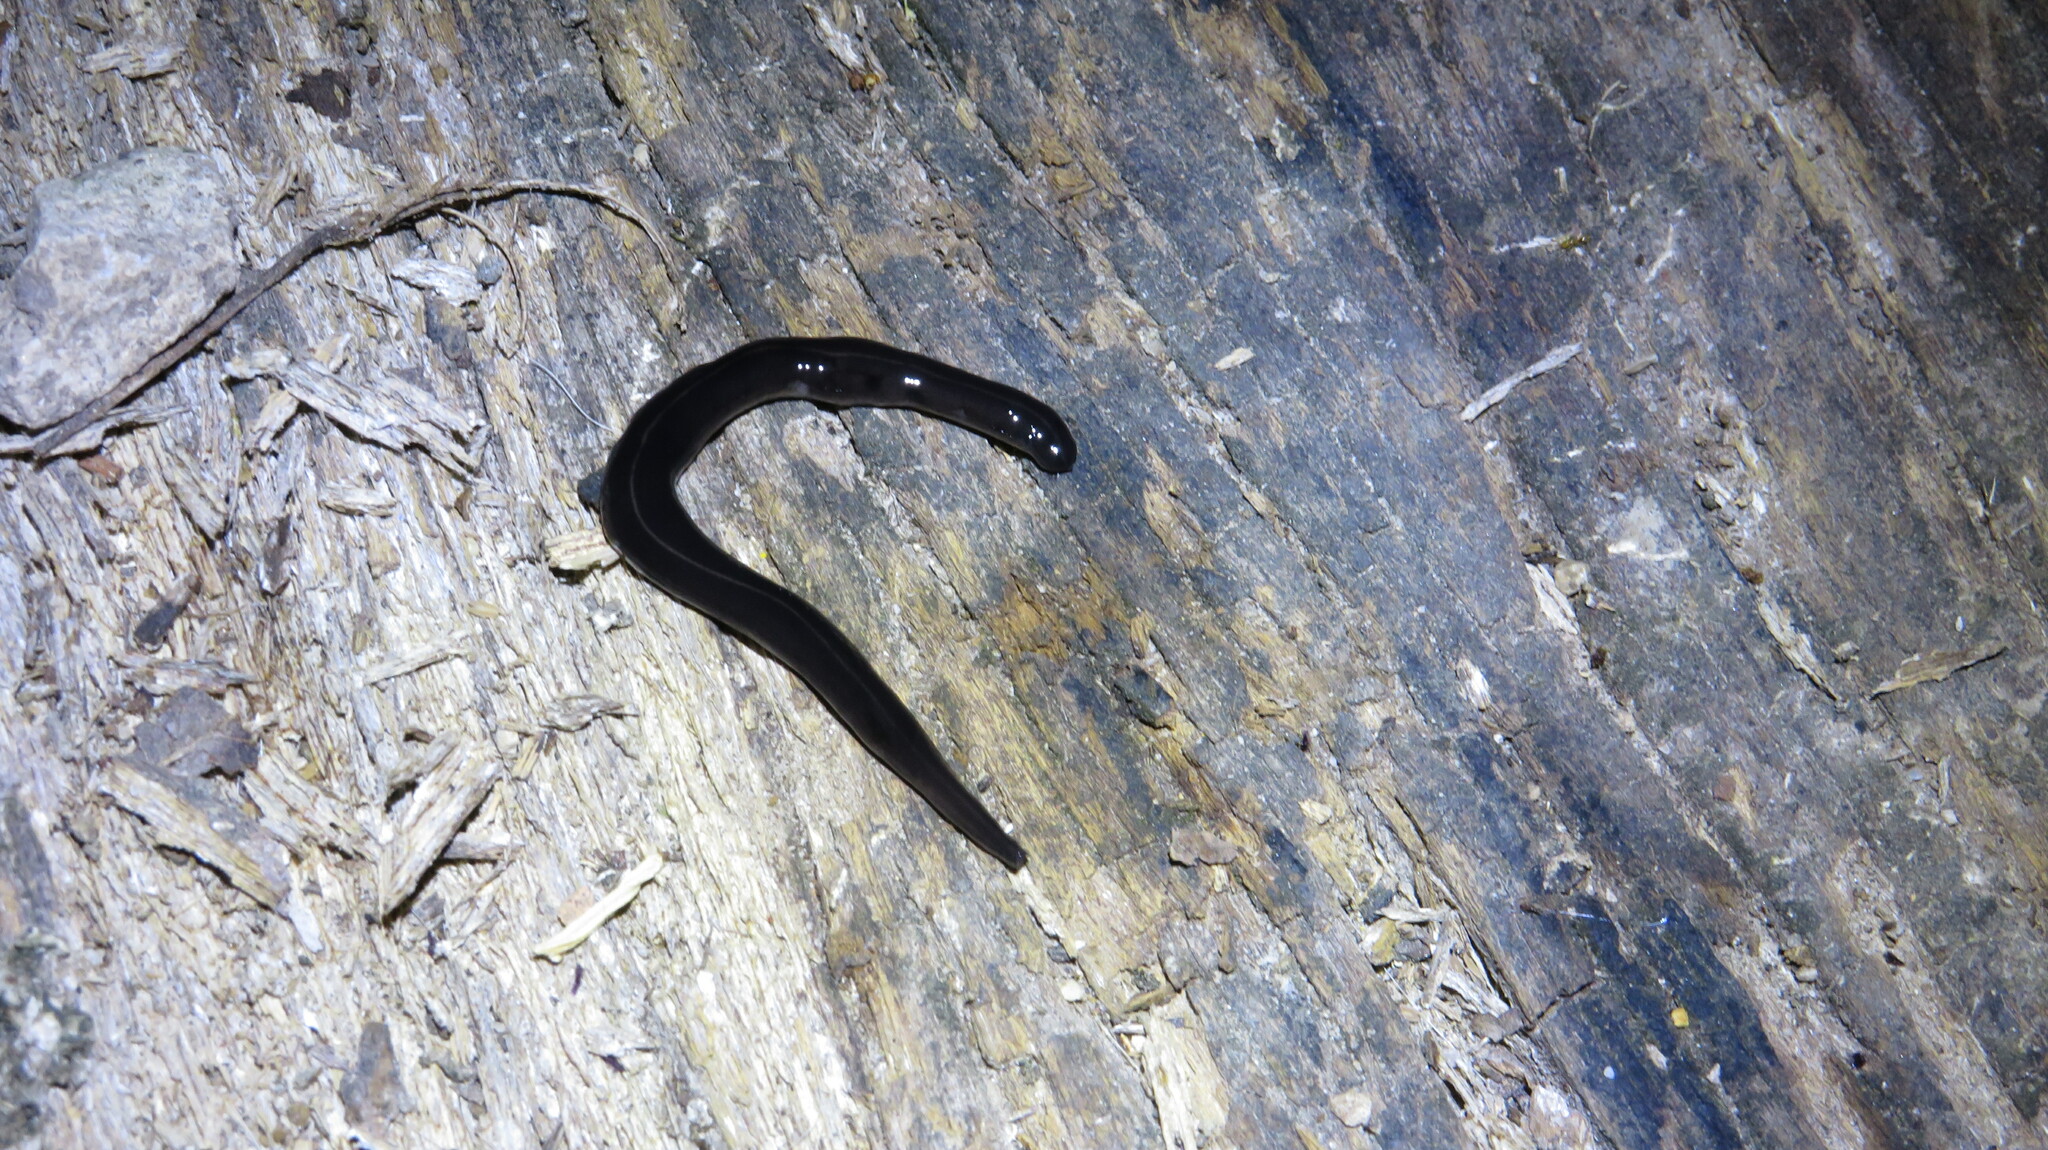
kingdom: Animalia
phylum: Platyhelminthes
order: Tricladida
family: Geoplanidae
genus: Platydemus
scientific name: Platydemus manokwari
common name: New guinea flatworm
